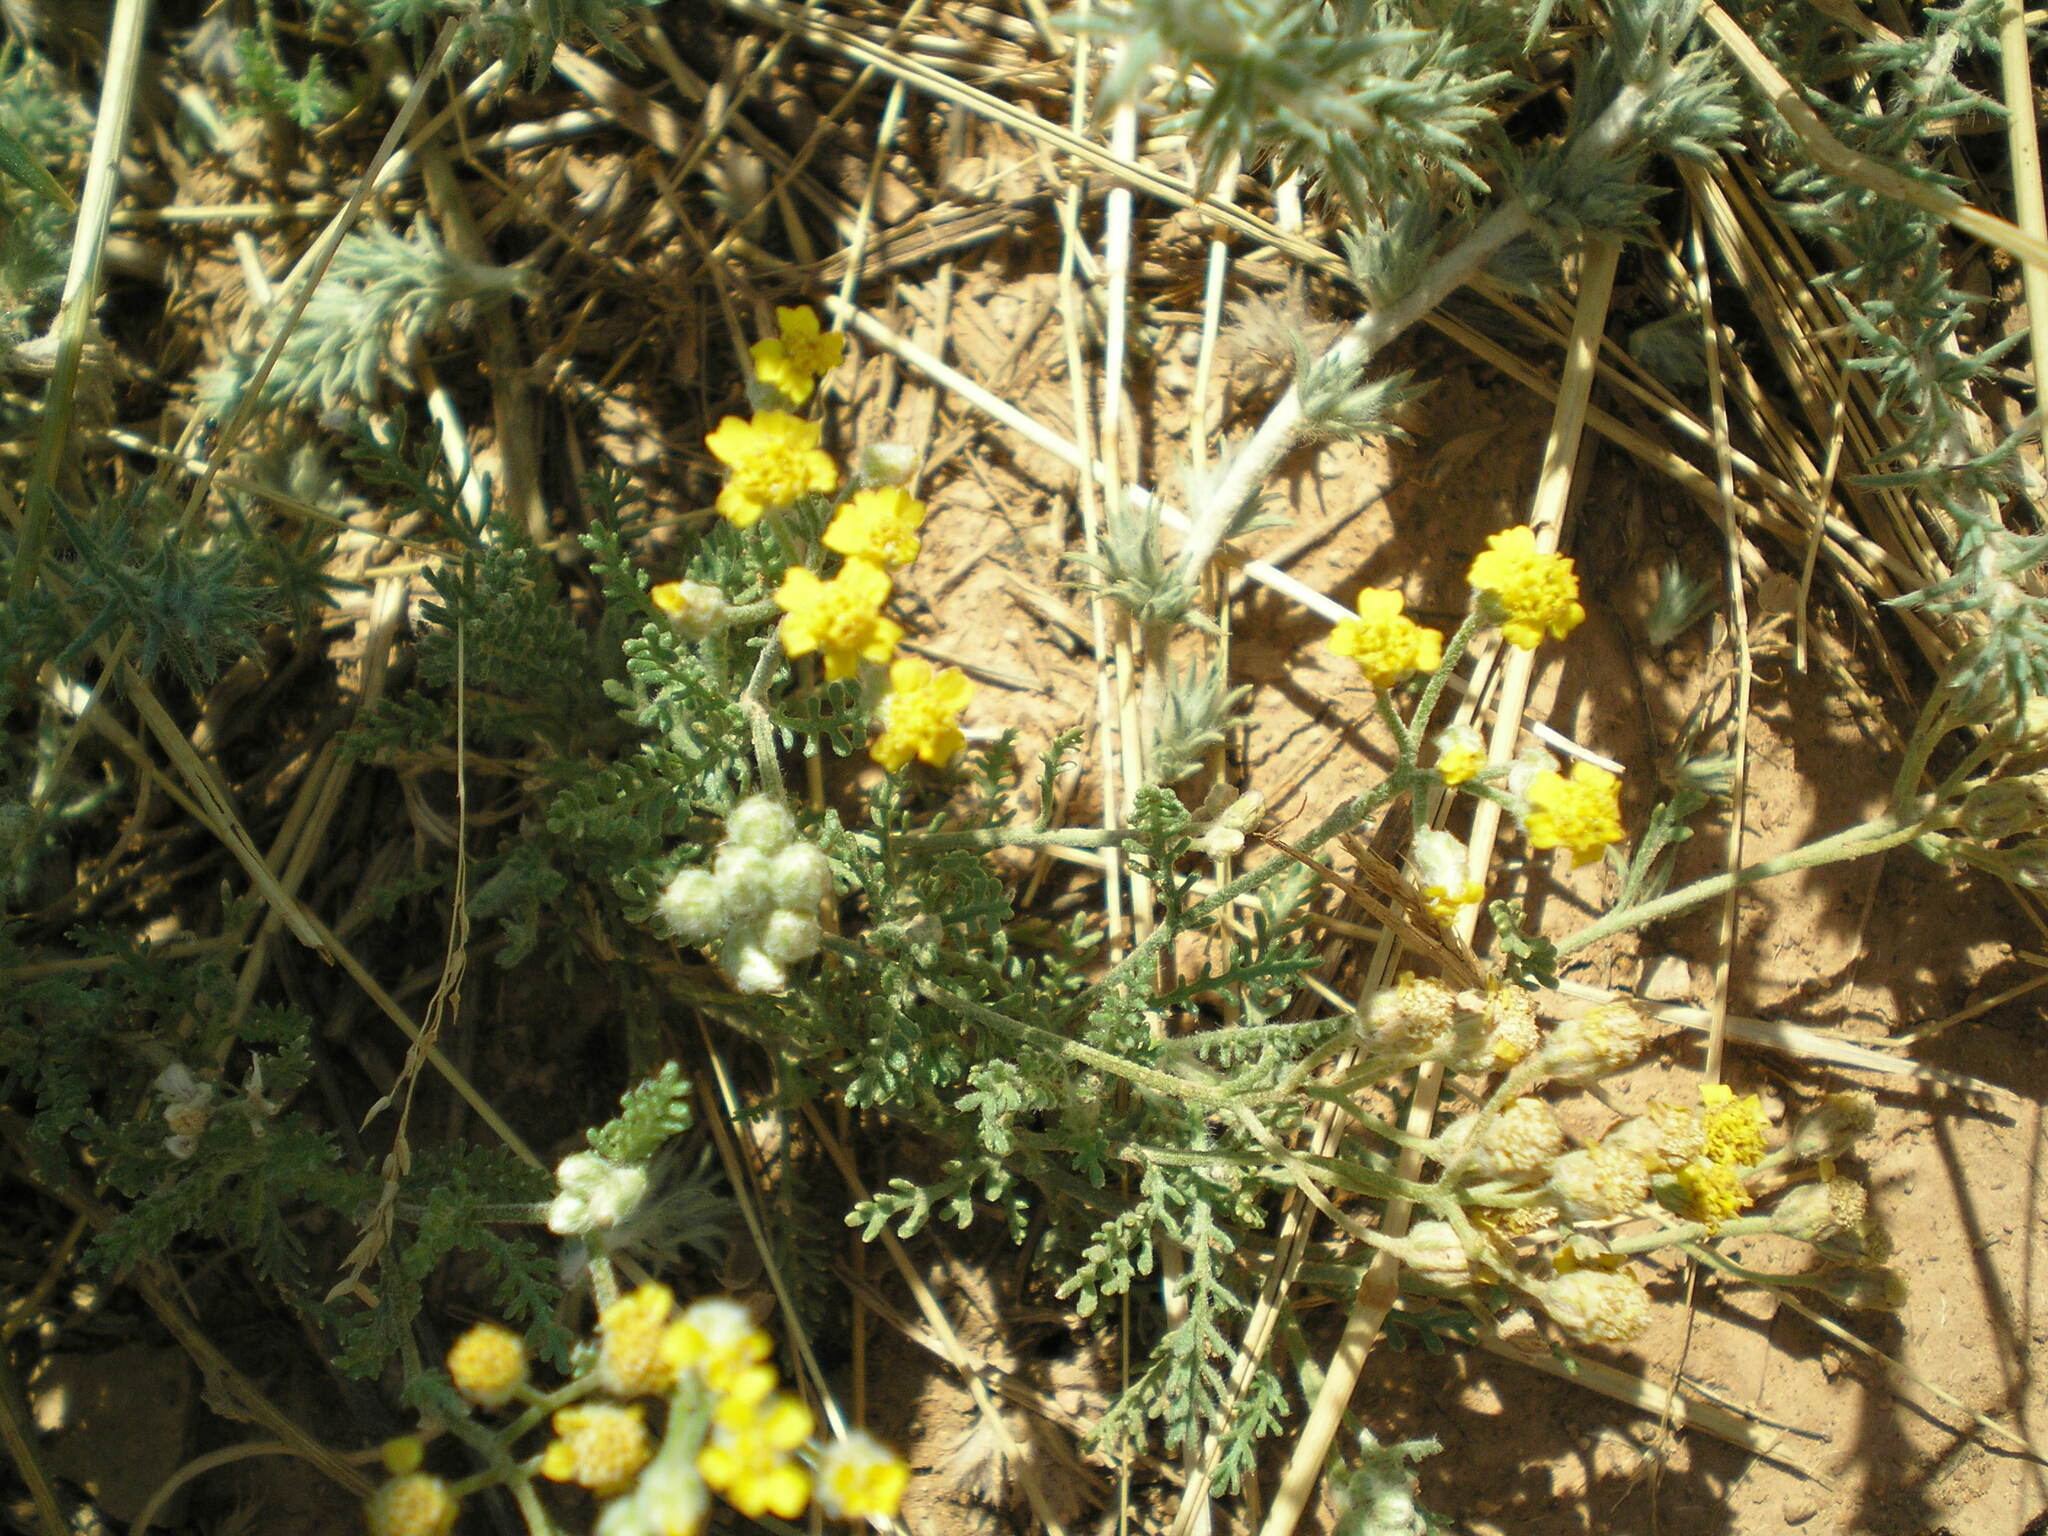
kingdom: Plantae
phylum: Tracheophyta
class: Magnoliopsida
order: Asterales
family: Asteraceae
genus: Achillea
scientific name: Achillea leptophylla
